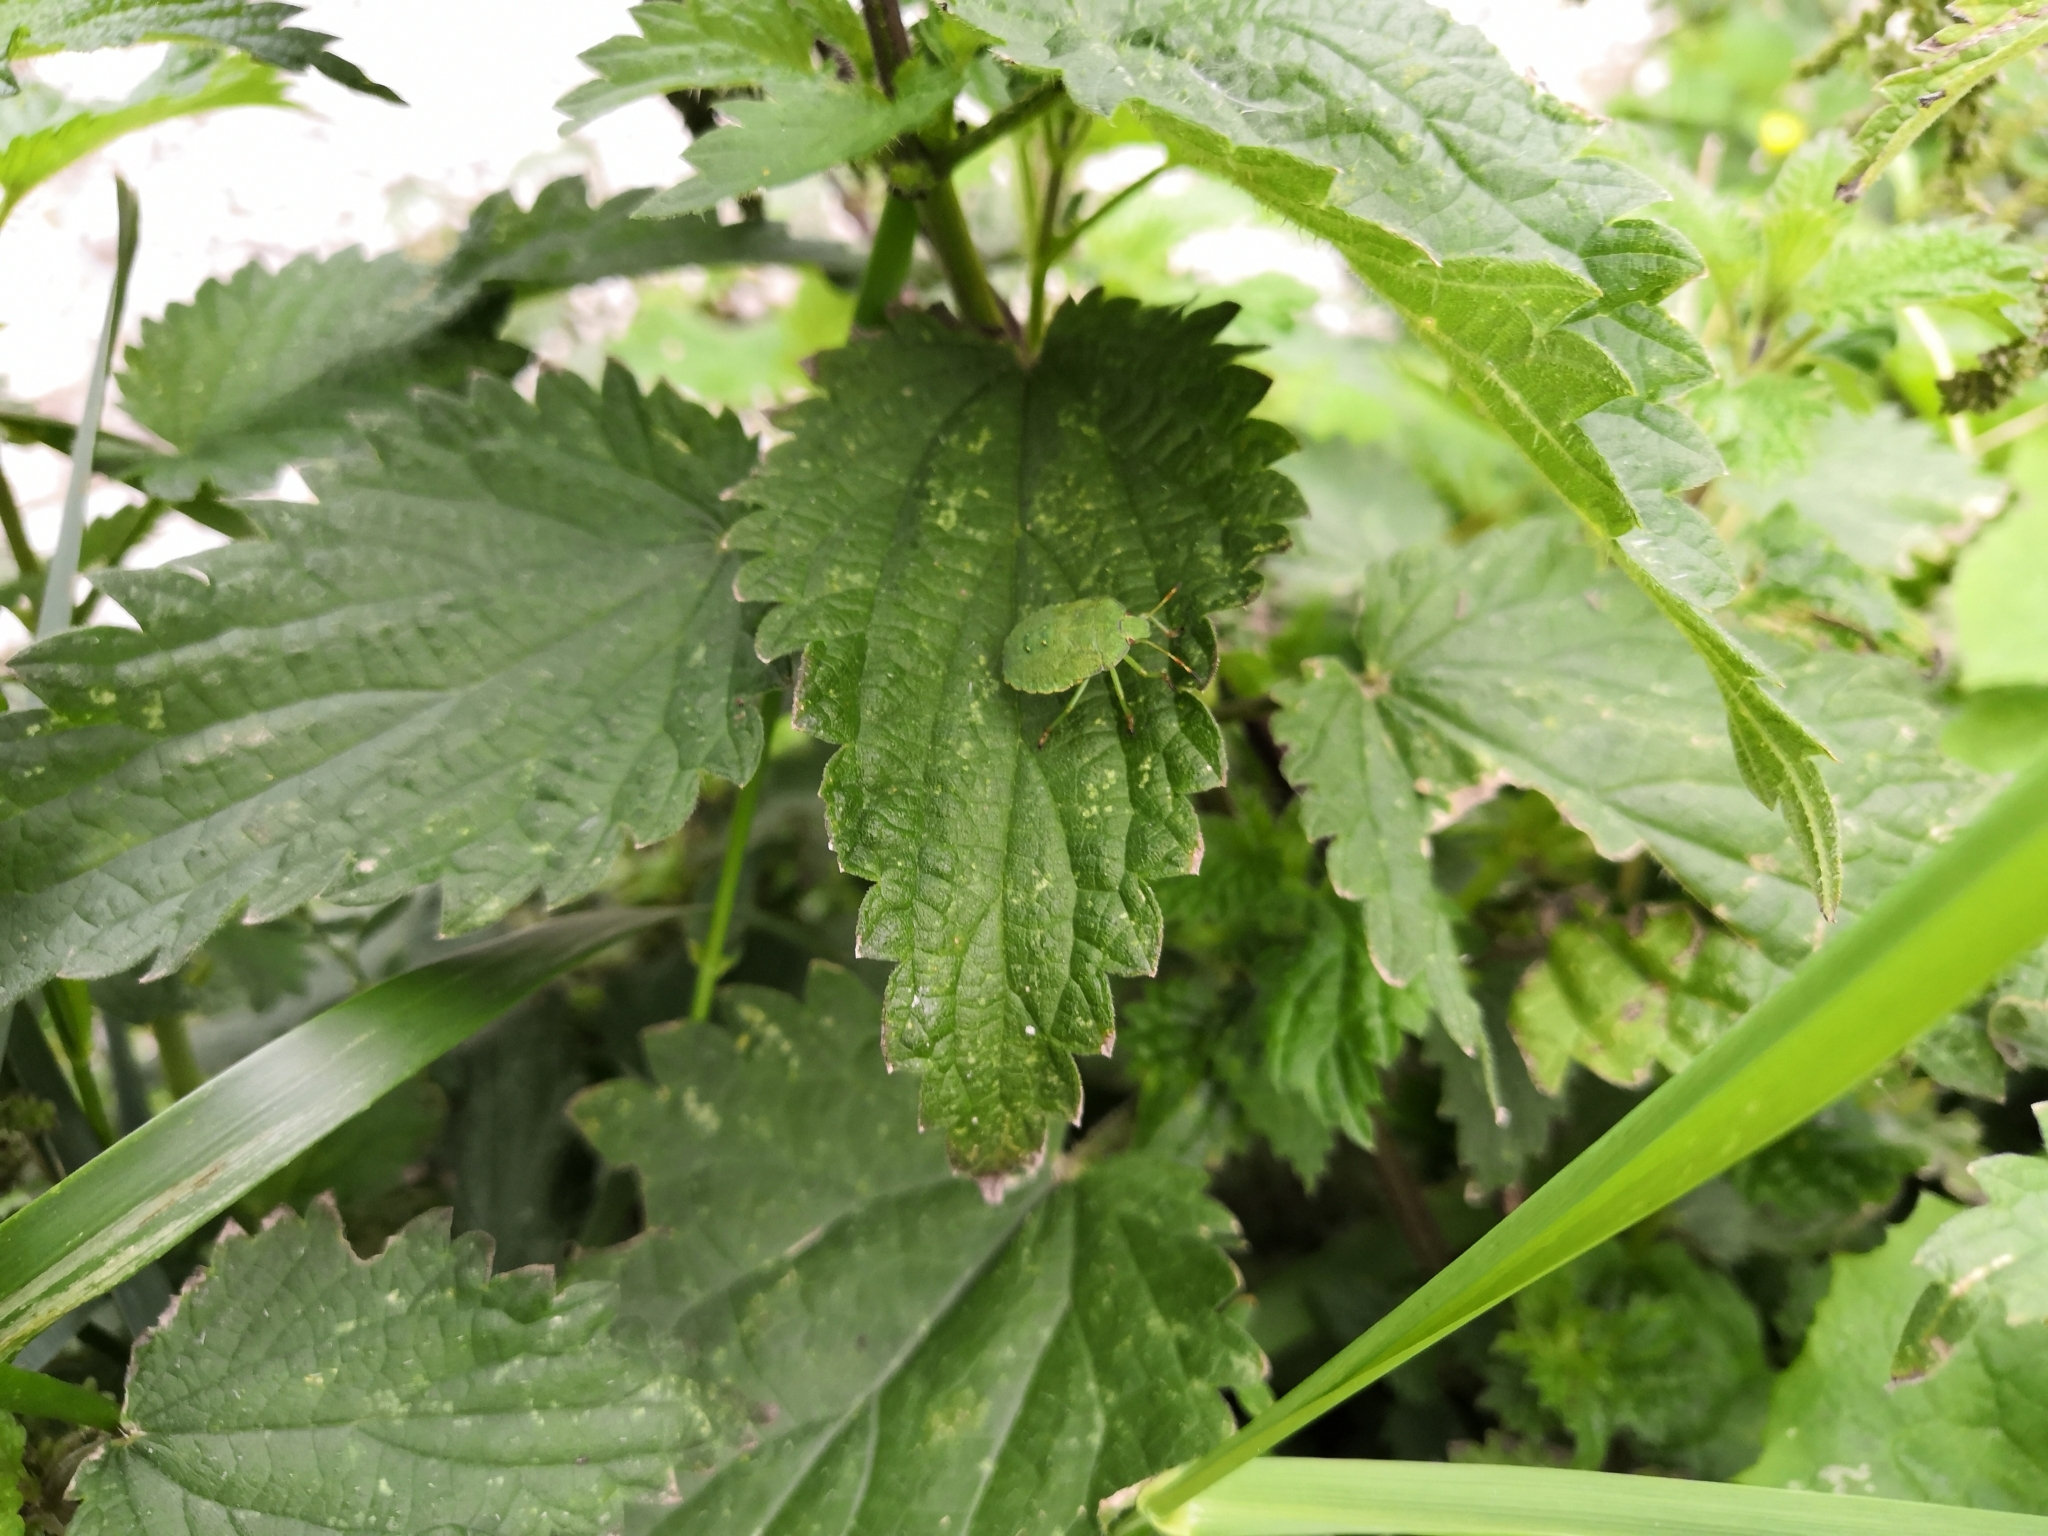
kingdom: Animalia
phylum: Arthropoda
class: Insecta
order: Hemiptera
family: Pentatomidae
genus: Palomena
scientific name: Palomena prasina
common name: Green shieldbug
